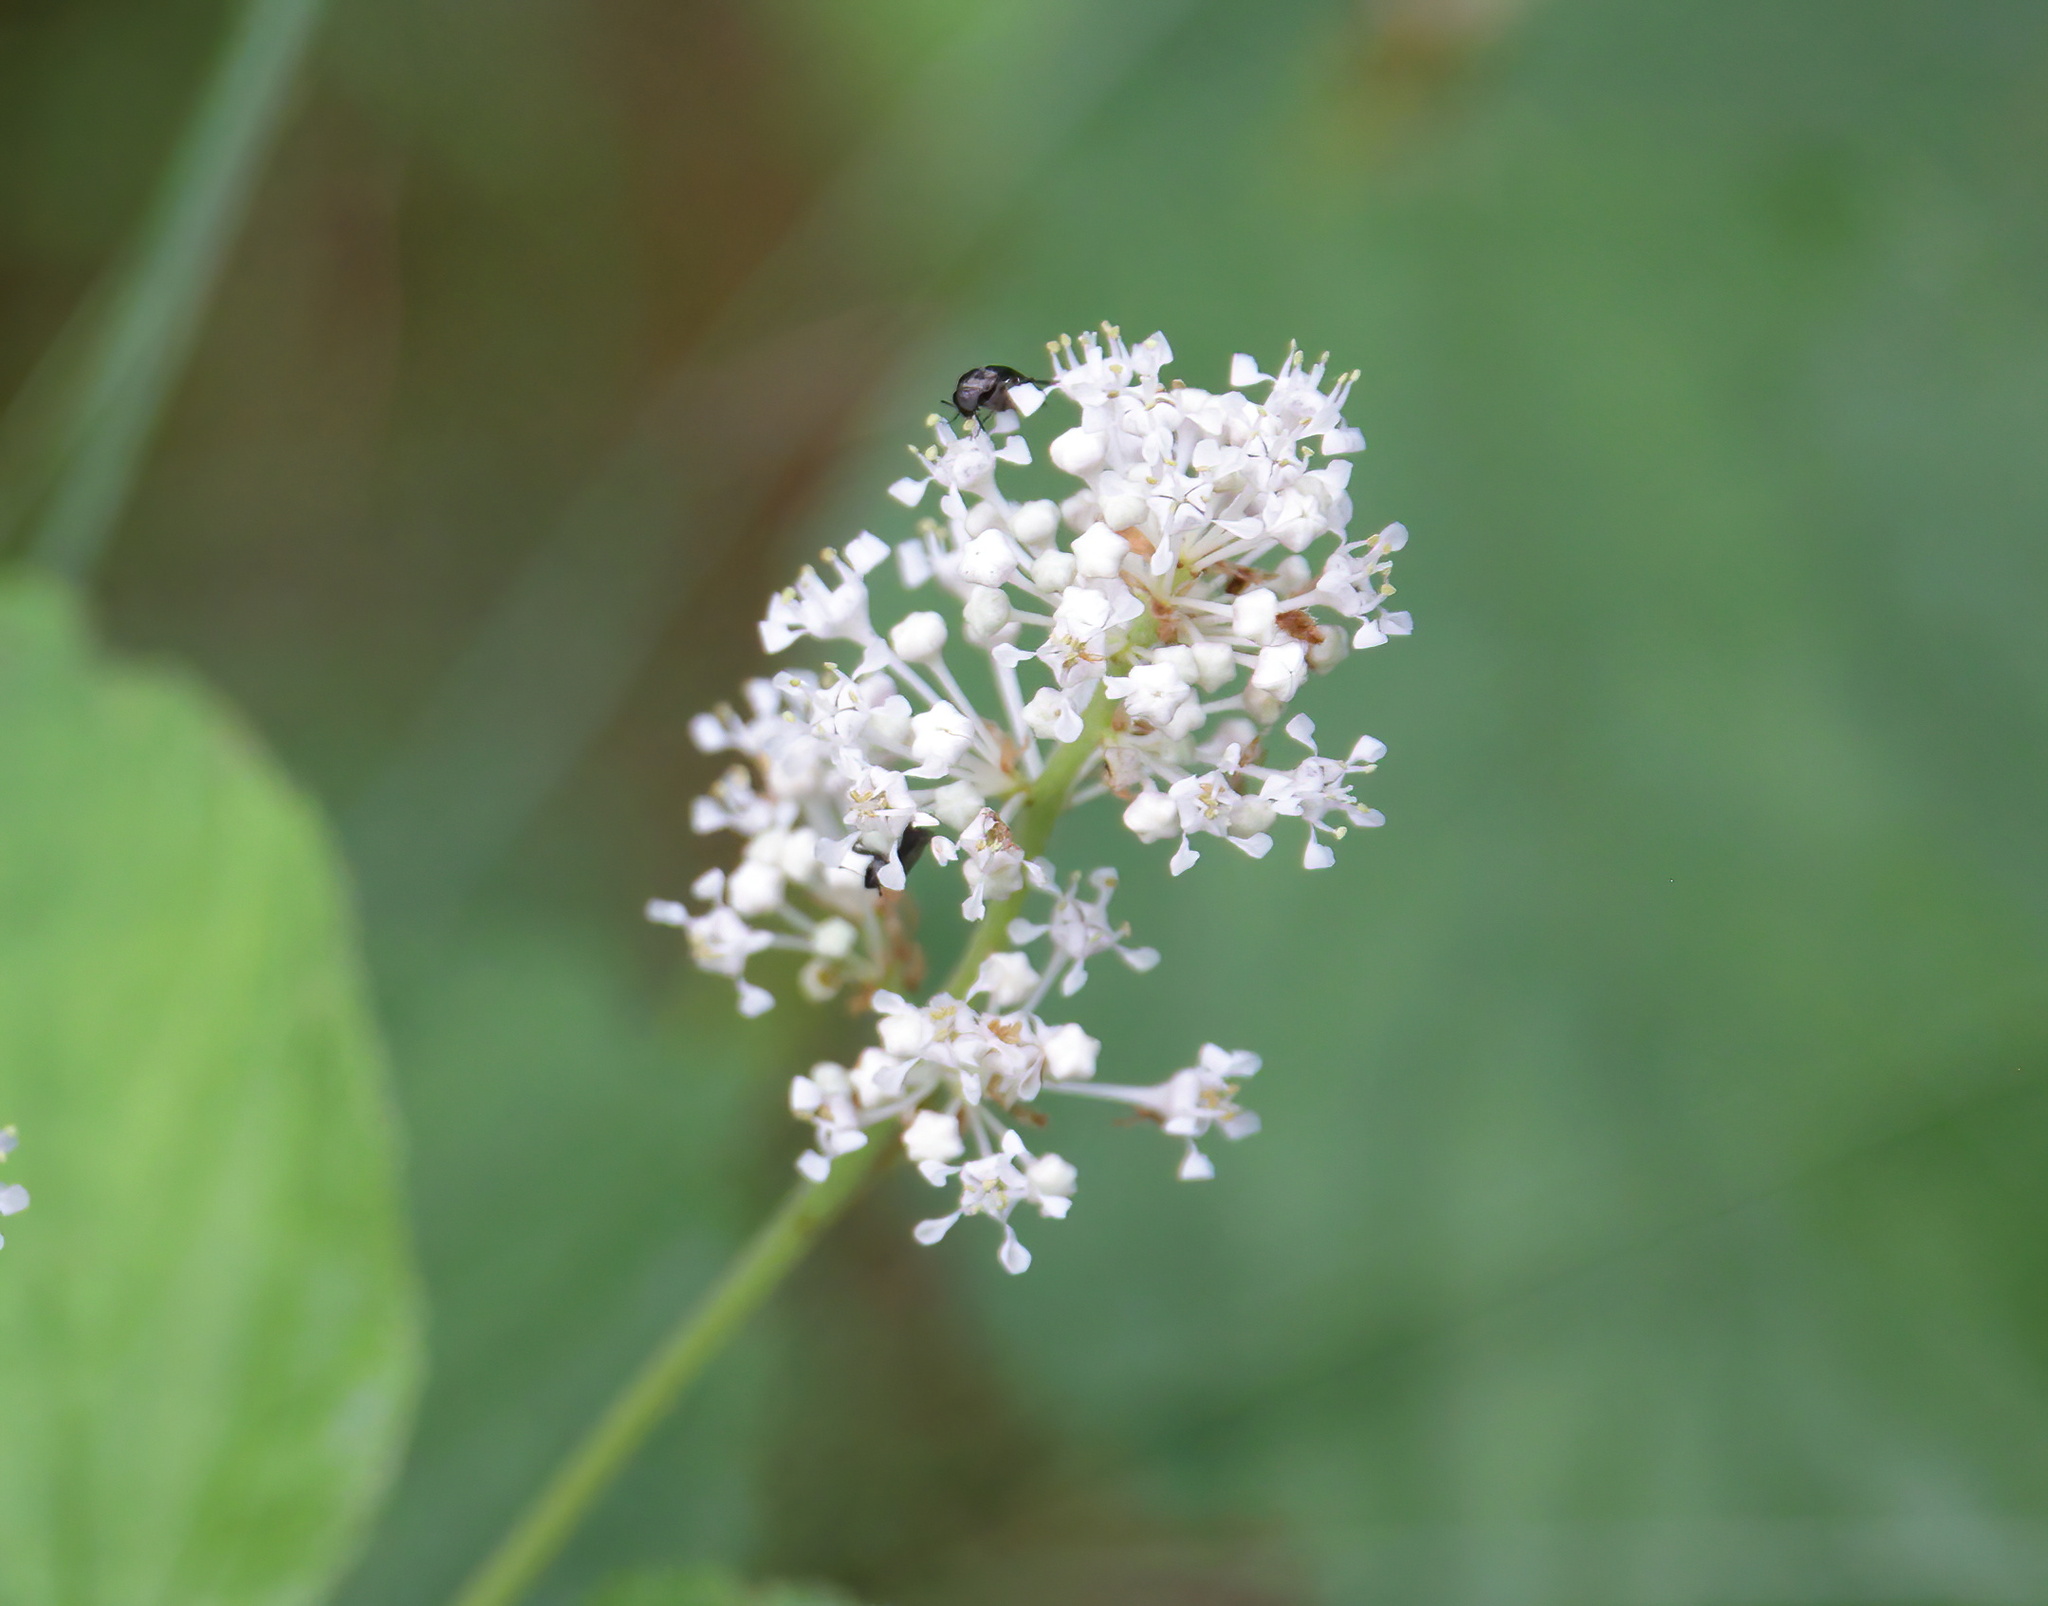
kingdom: Plantae
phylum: Tracheophyta
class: Magnoliopsida
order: Rosales
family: Rhamnaceae
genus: Ceanothus
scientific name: Ceanothus americanus
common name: Redroot
